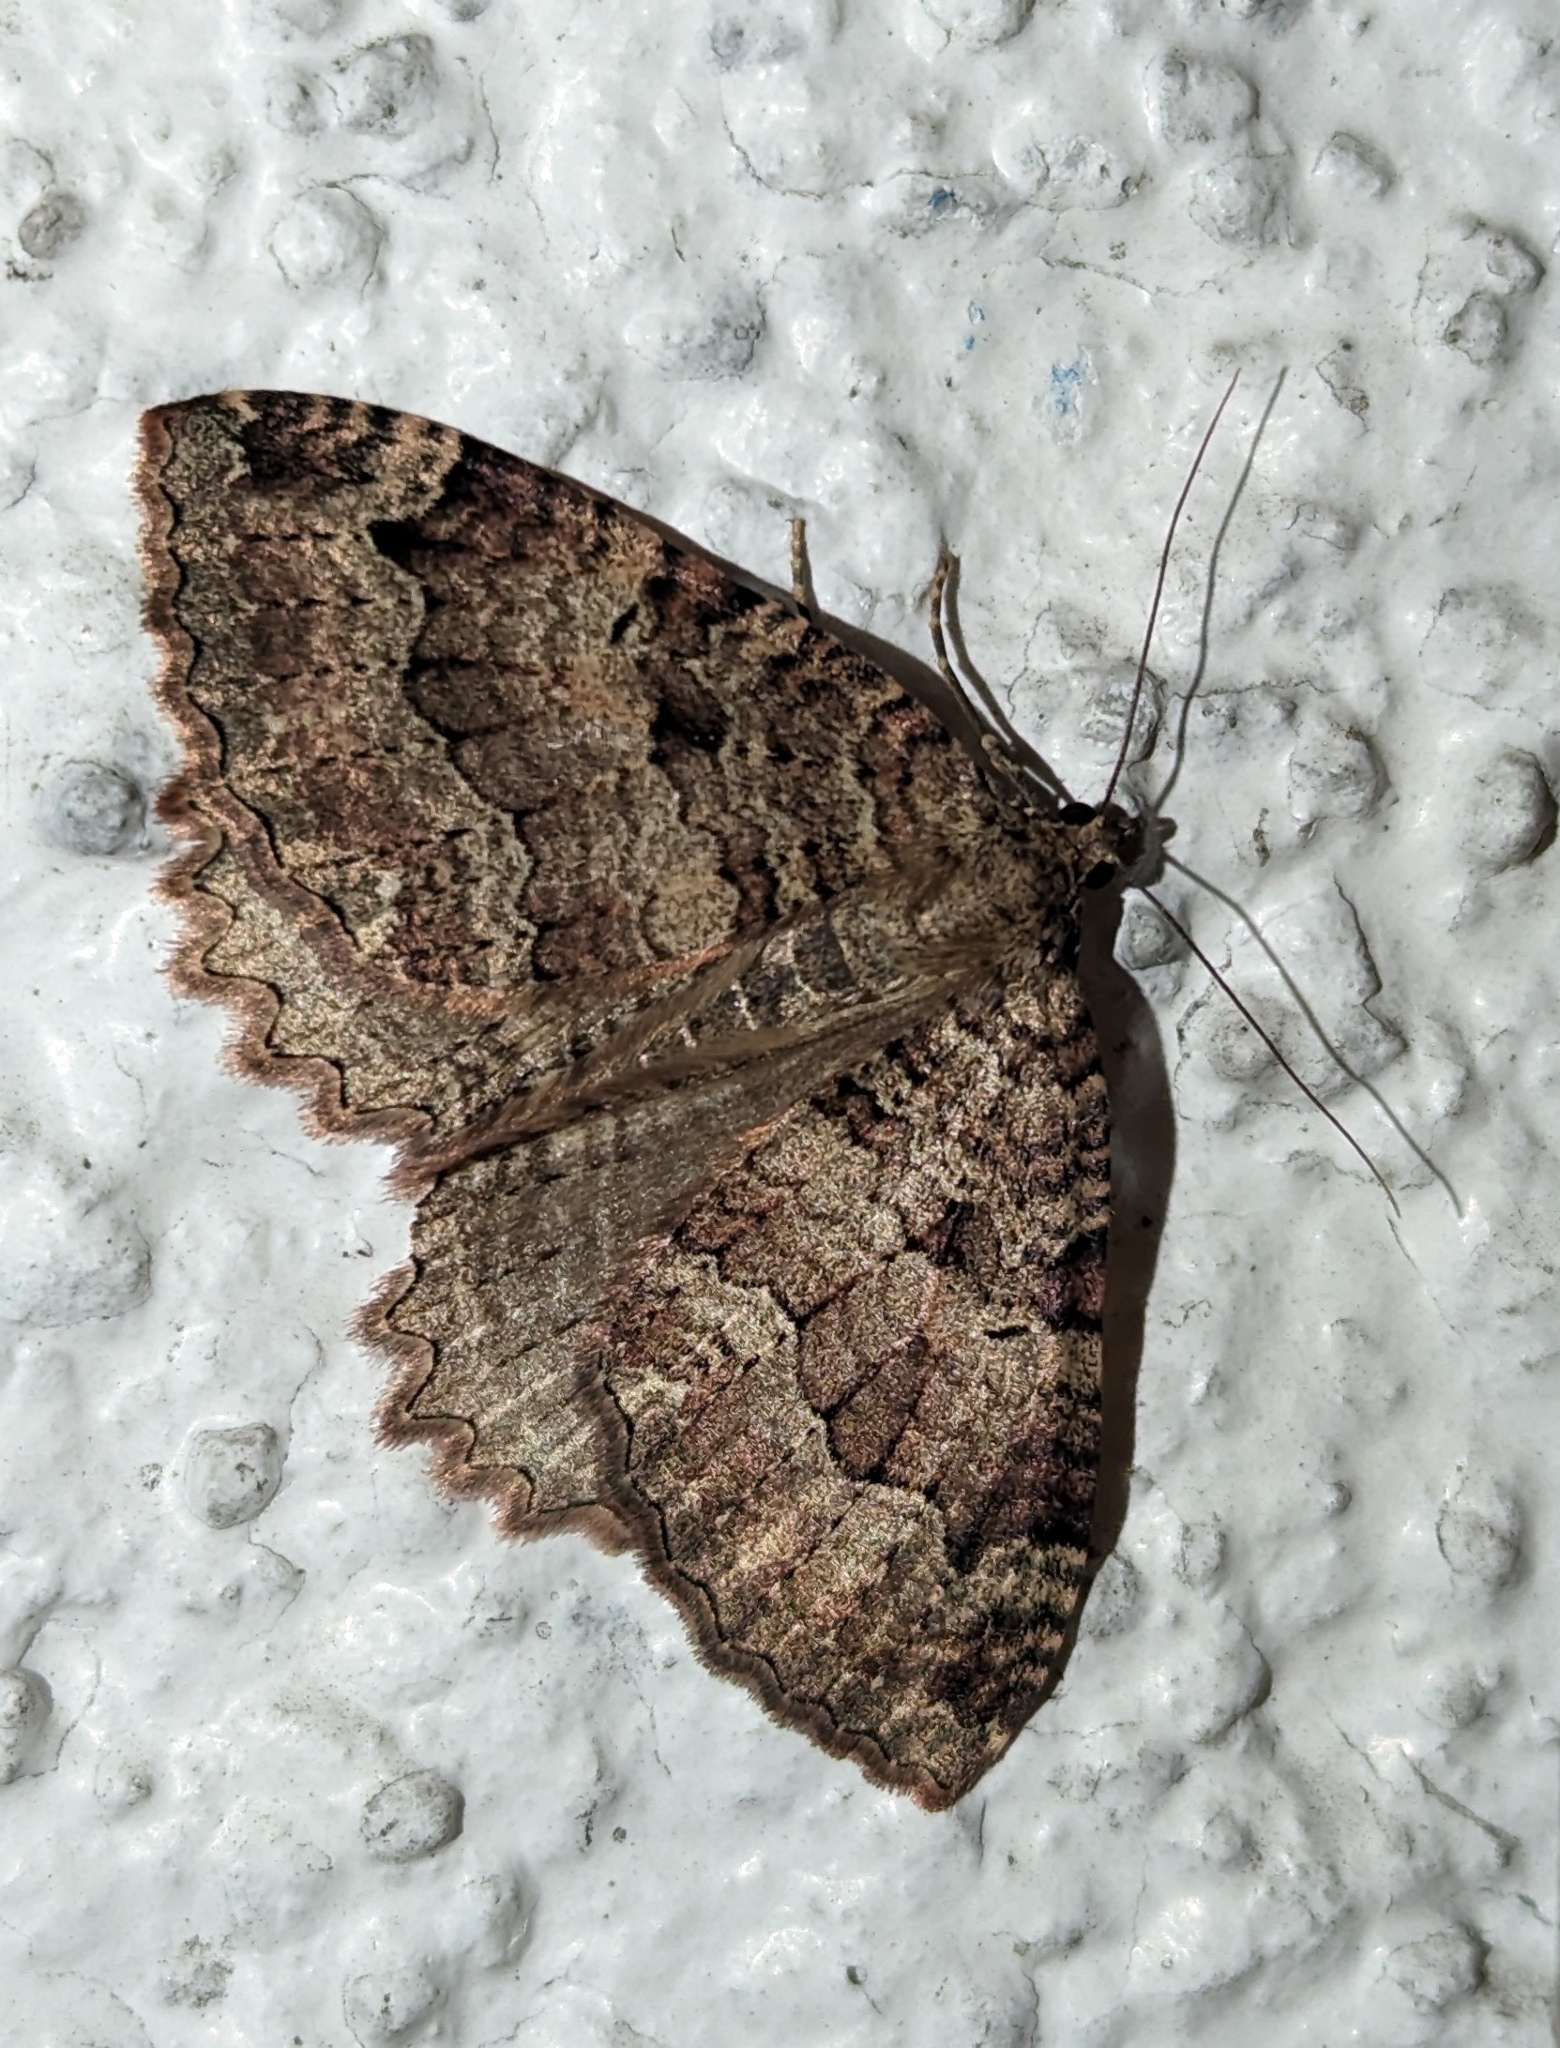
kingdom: Animalia
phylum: Arthropoda
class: Insecta
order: Lepidoptera
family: Geometridae
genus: Triphosa
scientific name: Triphosa dubitata
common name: Tissue
